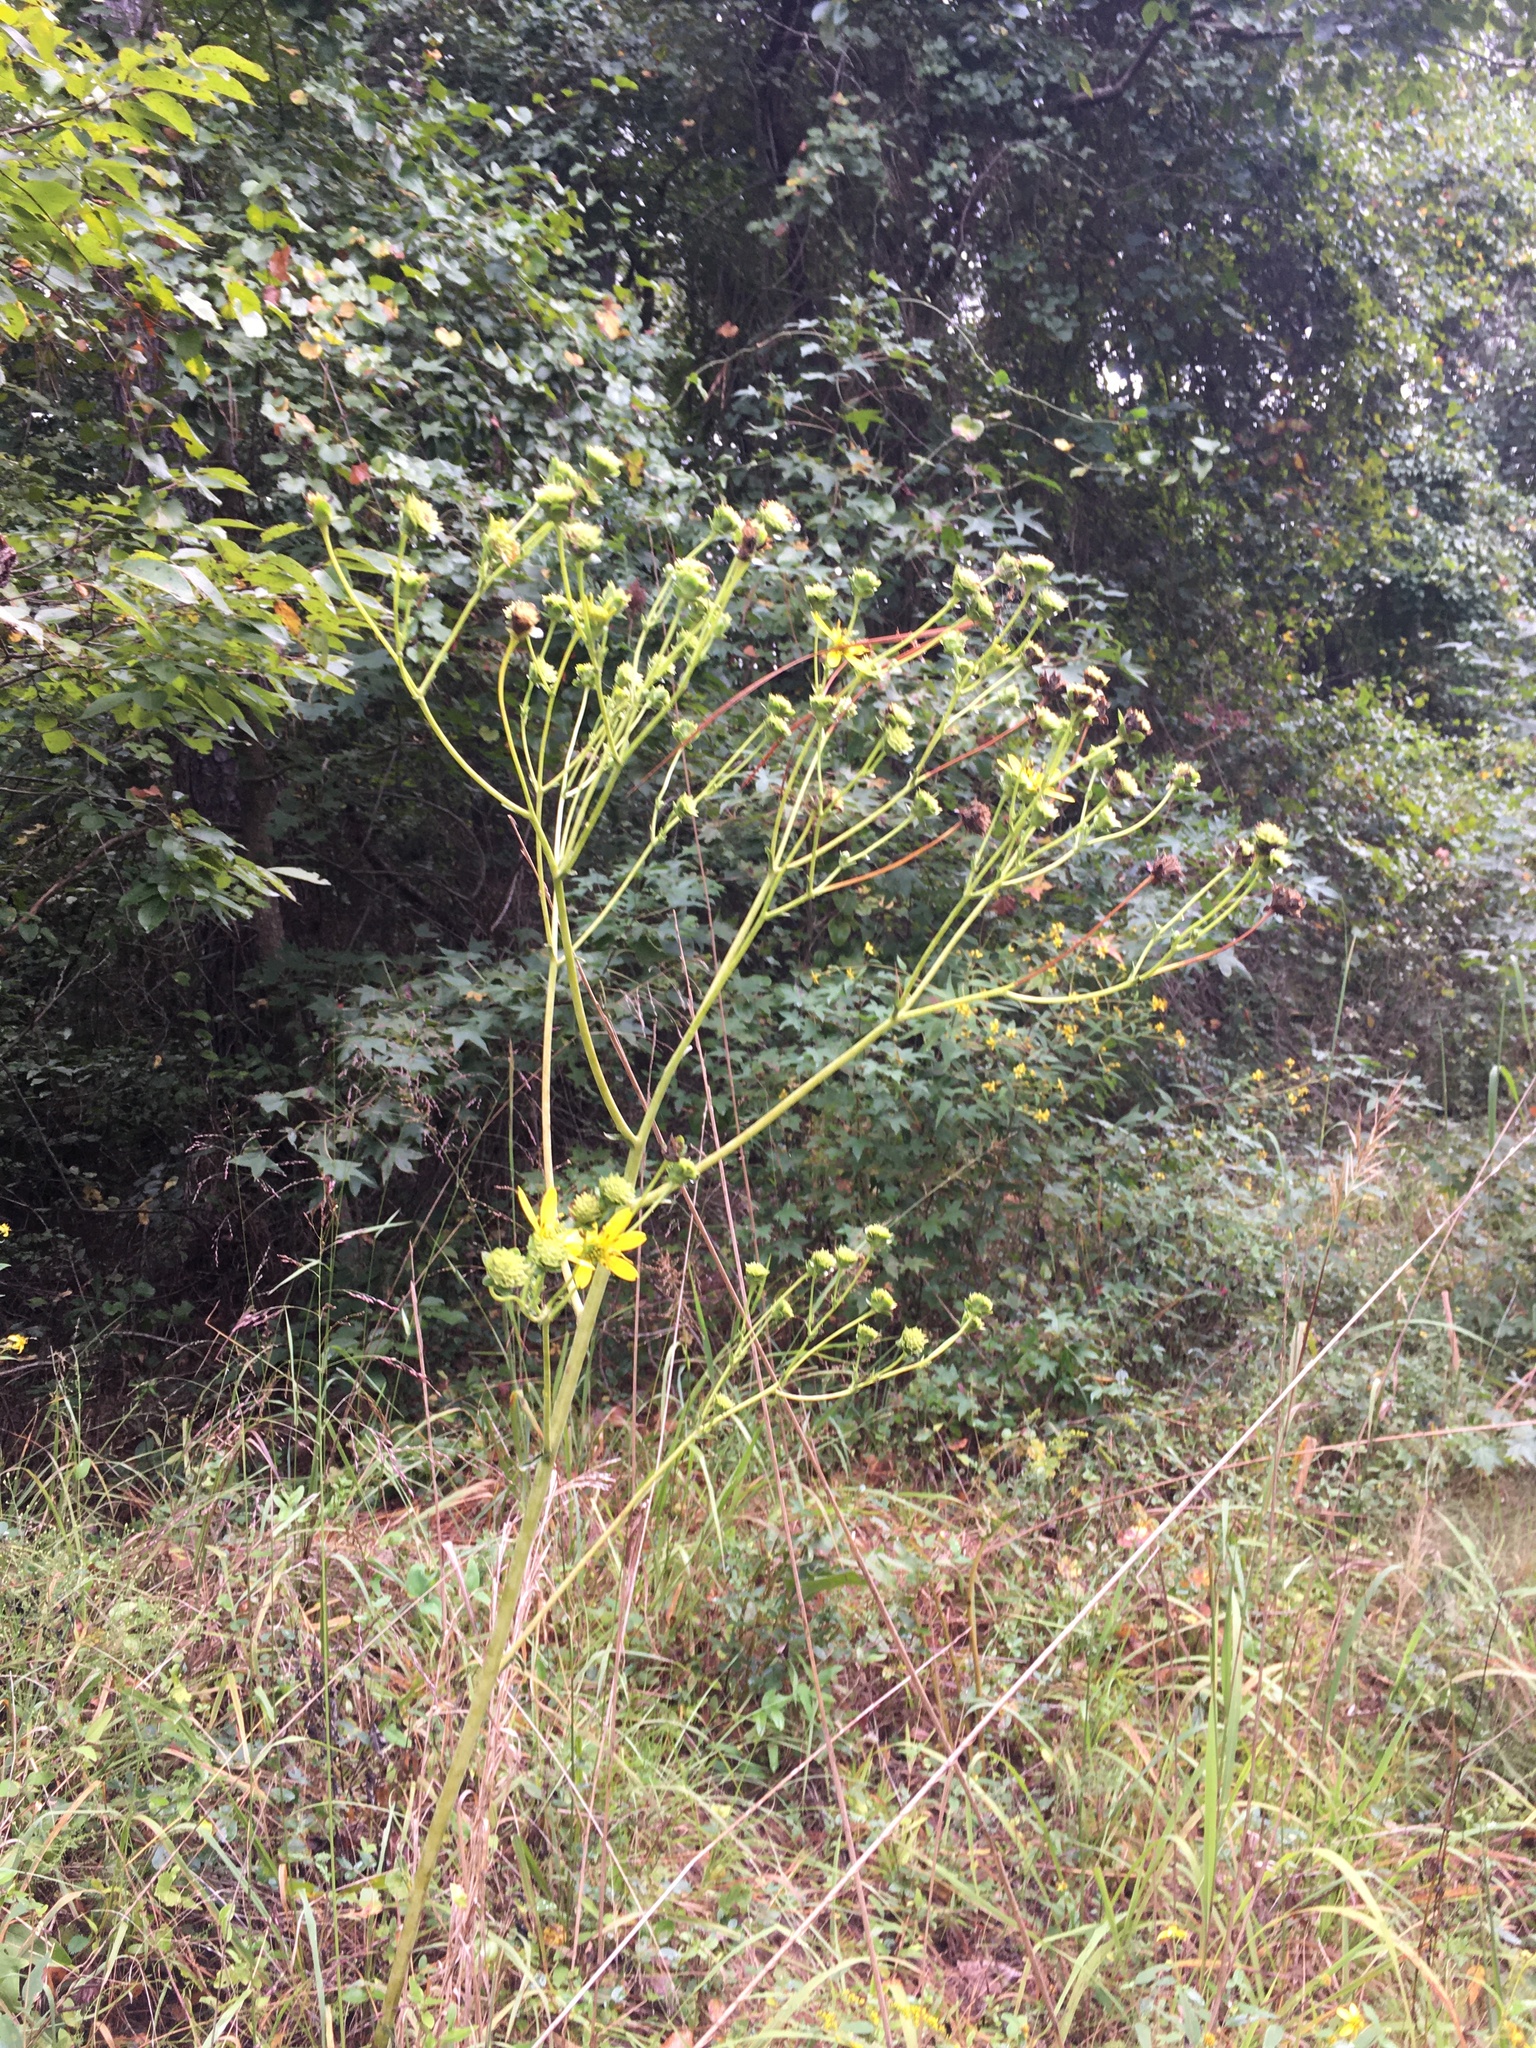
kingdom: Plantae
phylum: Tracheophyta
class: Magnoliopsida
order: Asterales
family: Asteraceae
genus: Silphium
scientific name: Silphium compositum
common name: Lesser basal-leaf rosinweed
